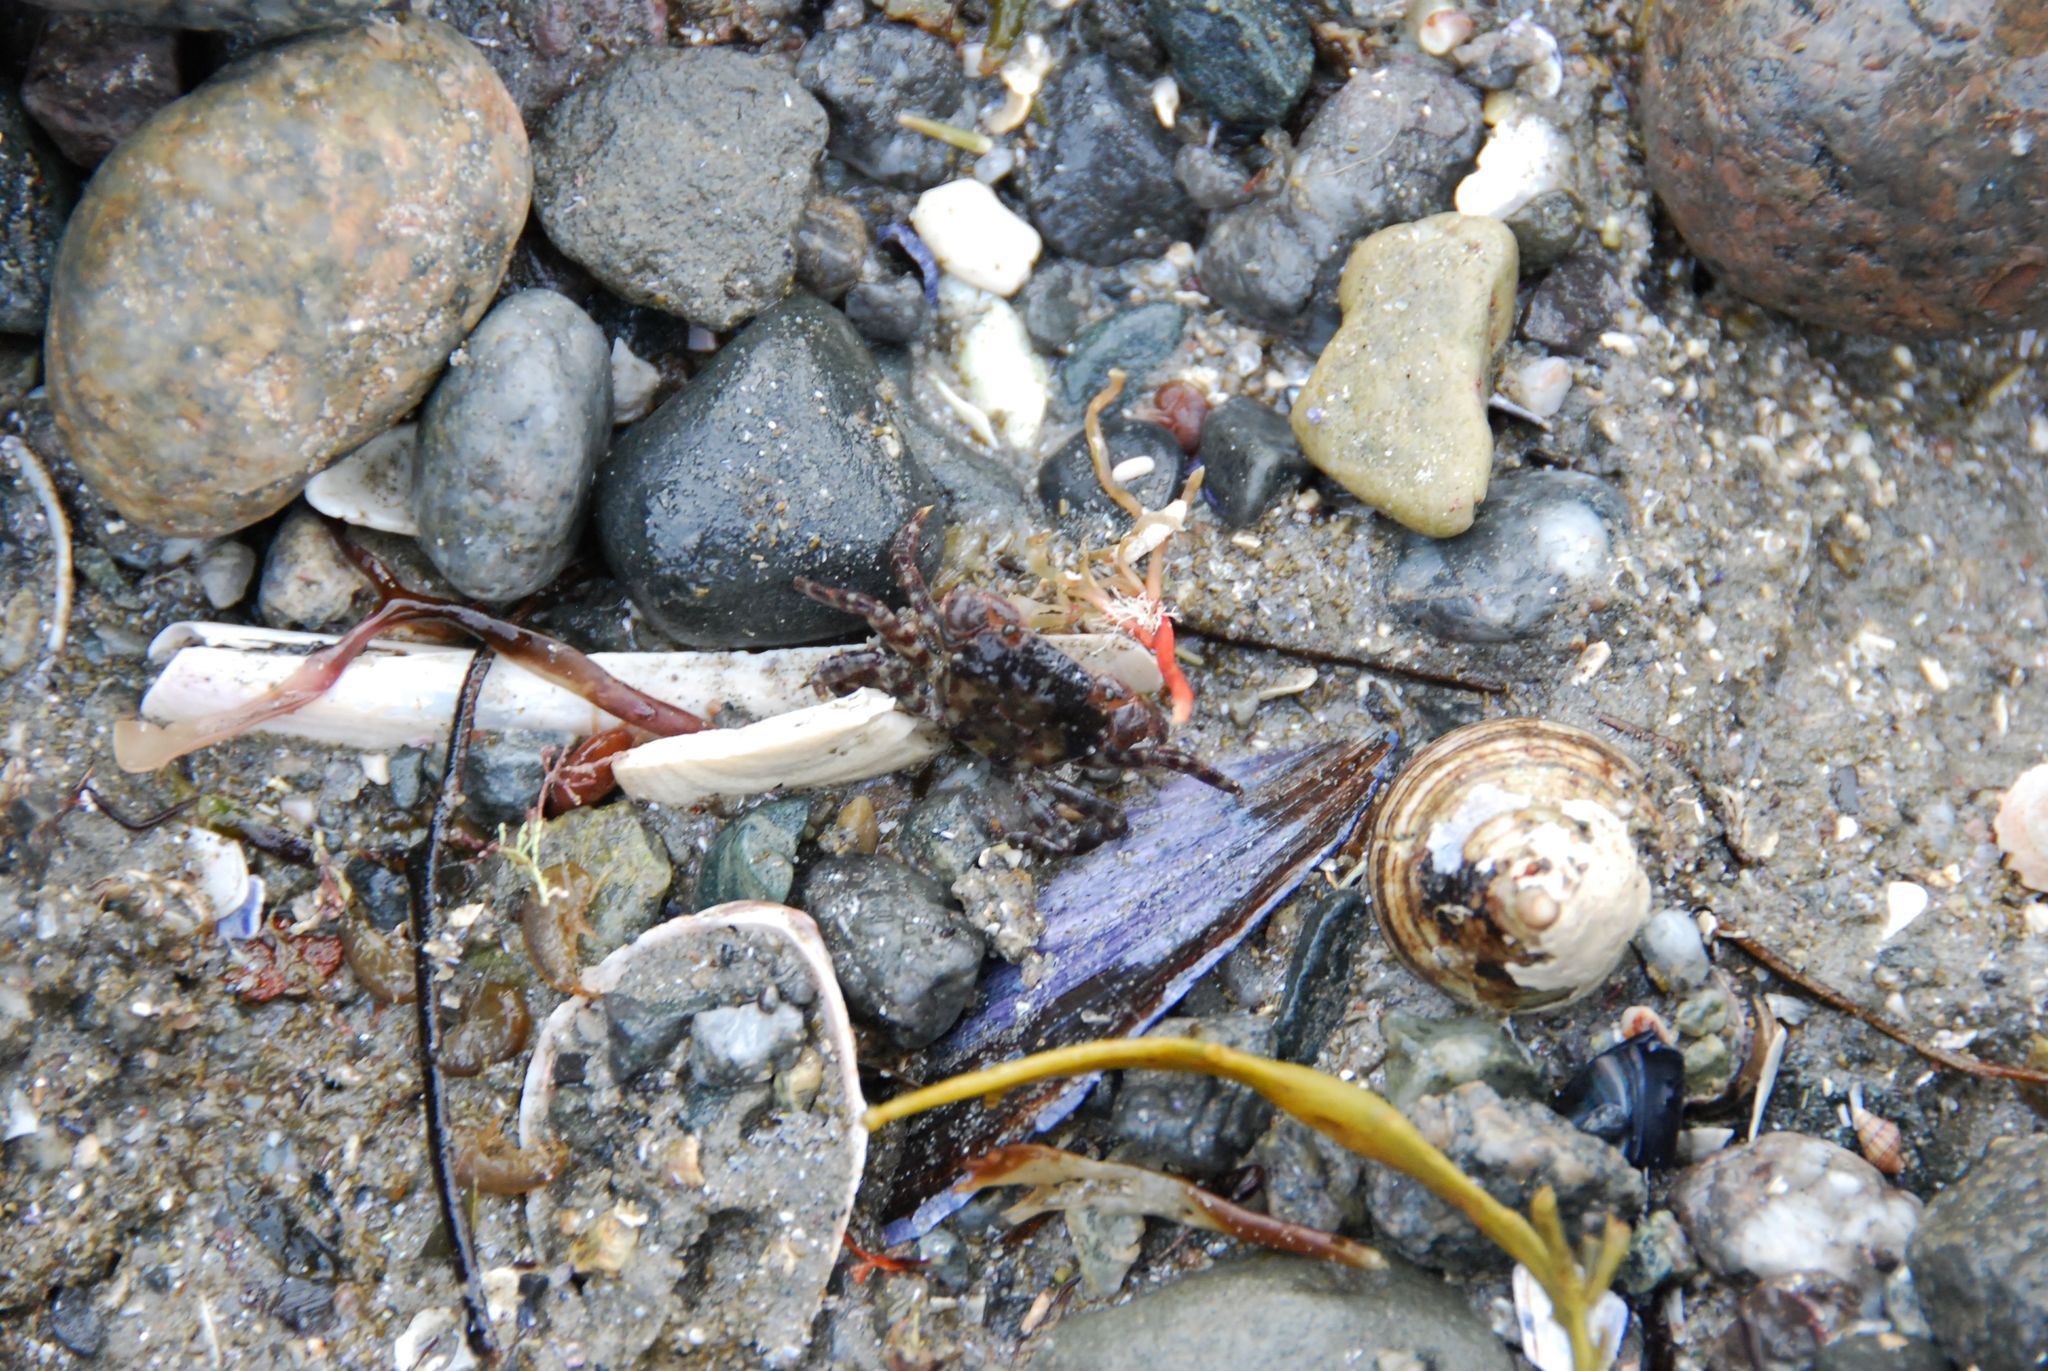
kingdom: Animalia
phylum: Arthropoda
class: Malacostraca
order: Decapoda
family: Varunidae
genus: Hemigrapsus
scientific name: Hemigrapsus sanguineus
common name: Asian shore crab
